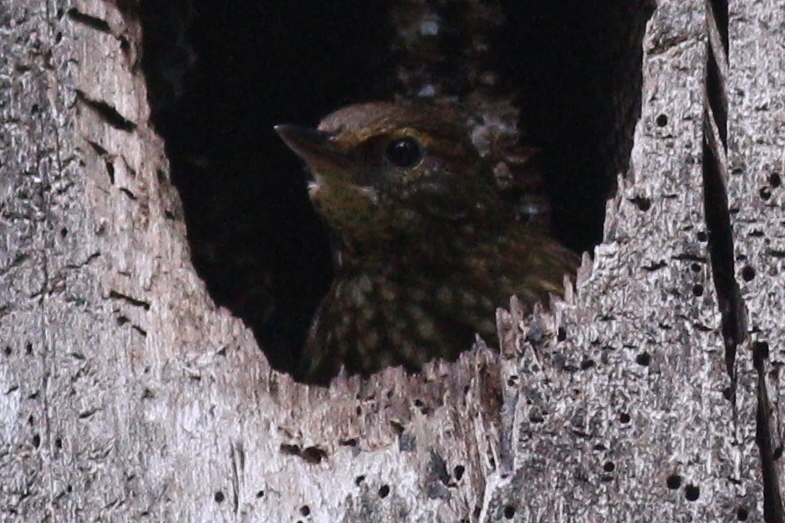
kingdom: Animalia
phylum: Chordata
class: Aves
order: Passeriformes
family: Furnariidae
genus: Syndactyla
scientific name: Syndactyla rufosuperciliata
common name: Buff-browed foliage-gleaner
